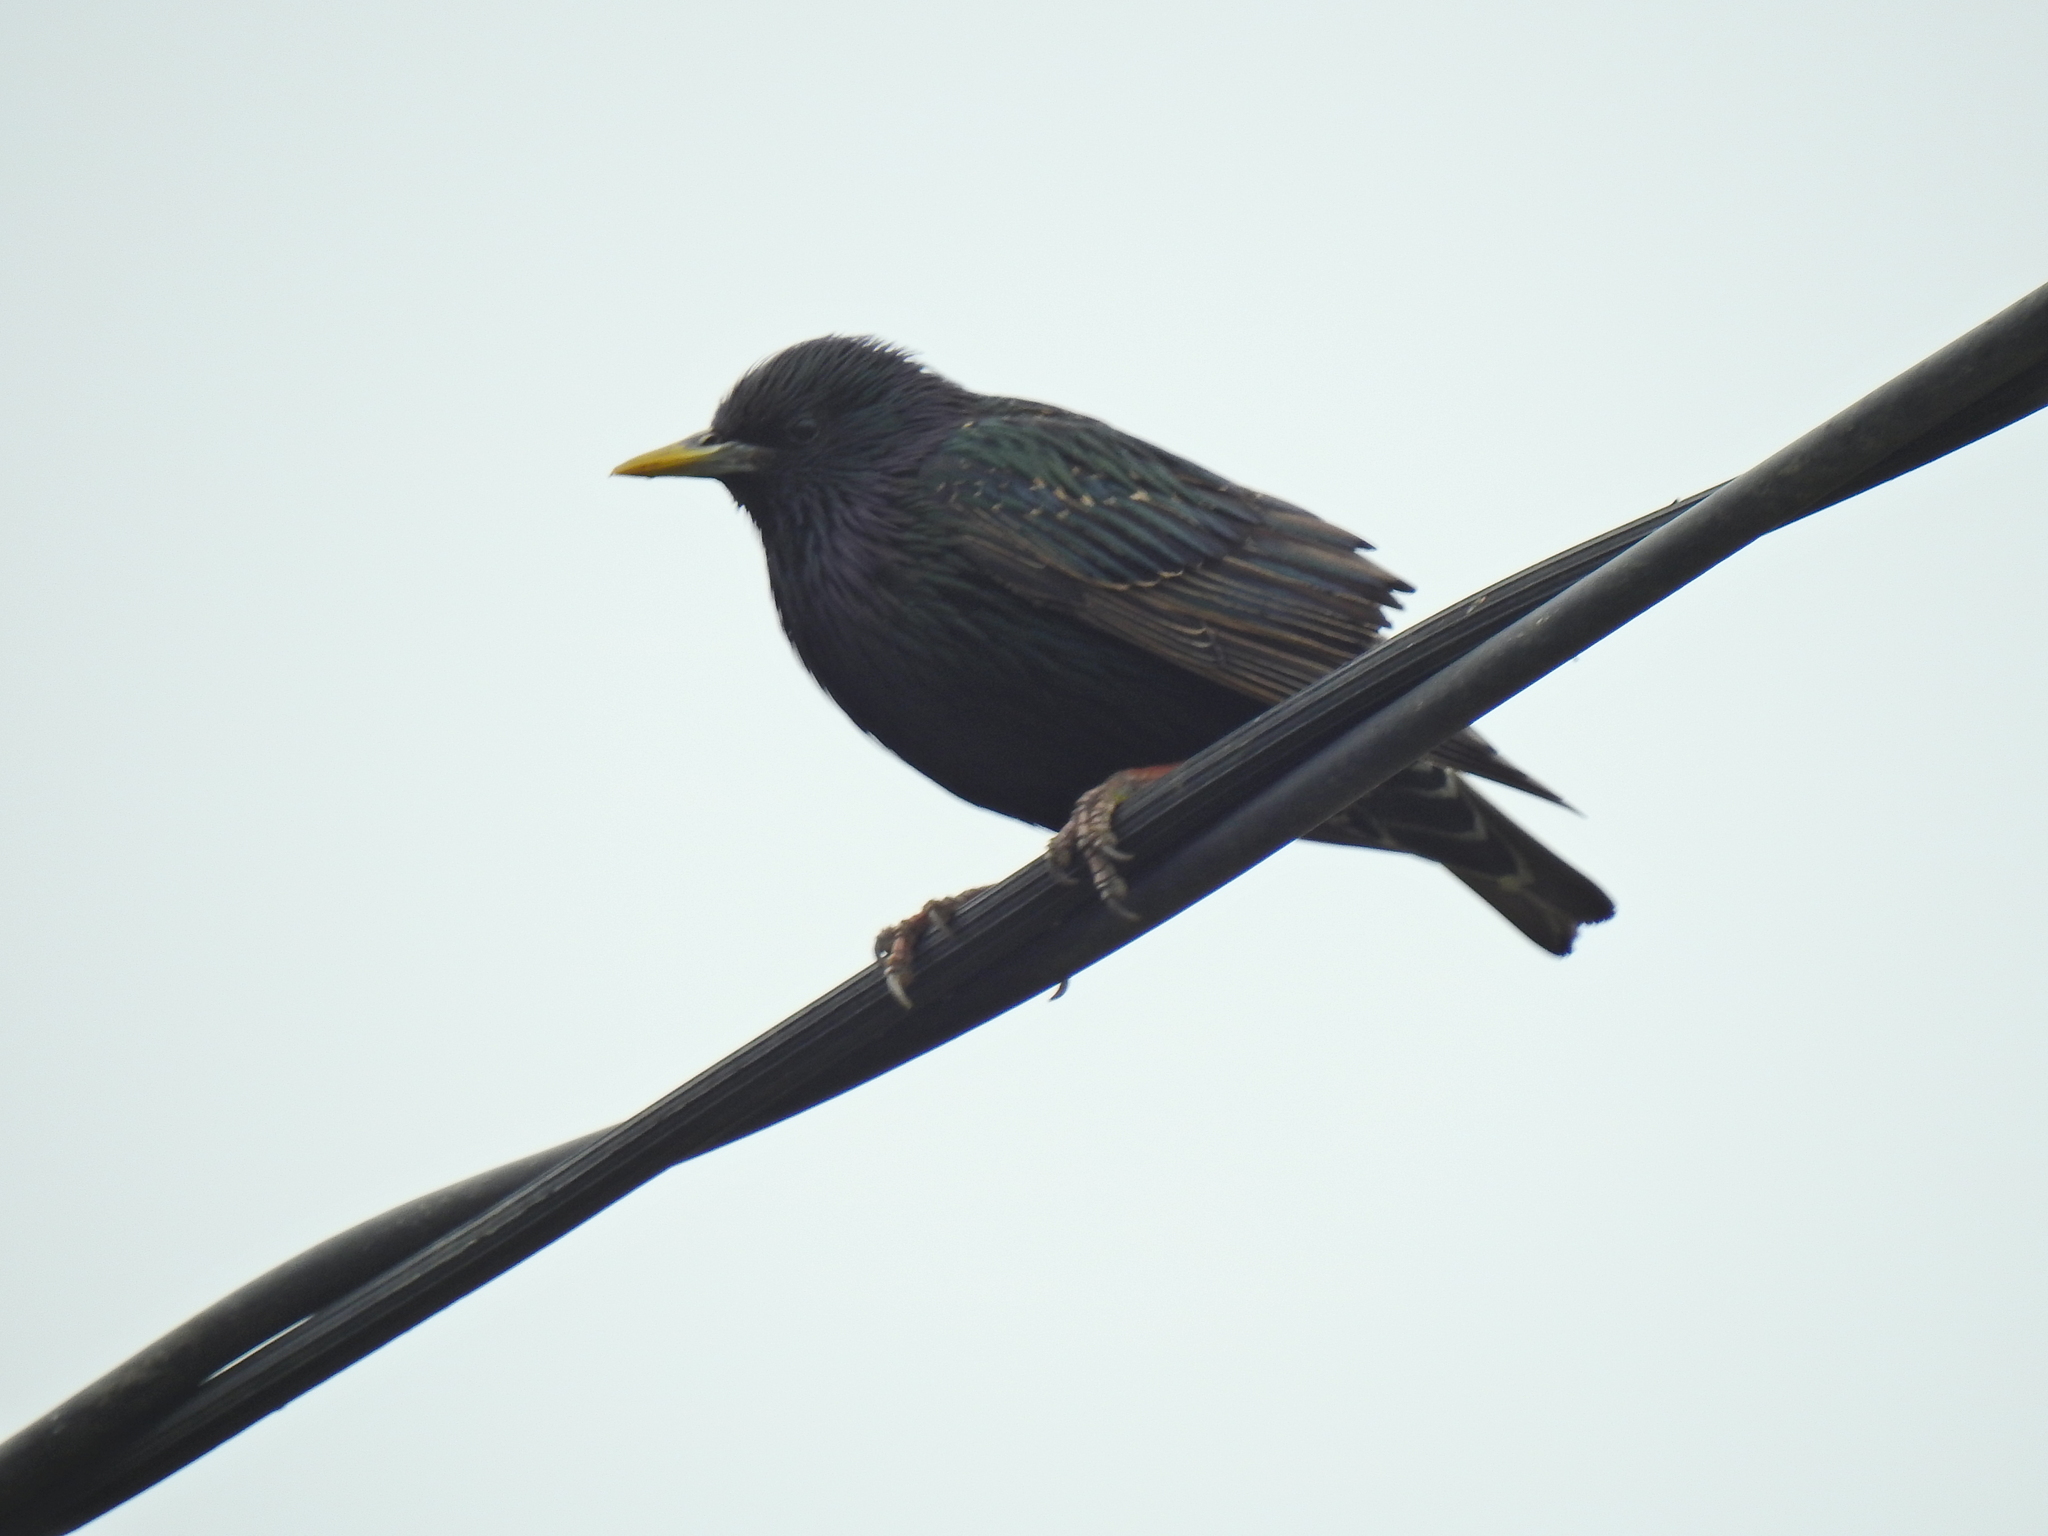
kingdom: Animalia
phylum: Chordata
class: Aves
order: Passeriformes
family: Sturnidae
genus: Sturnus
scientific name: Sturnus vulgaris
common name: Common starling
